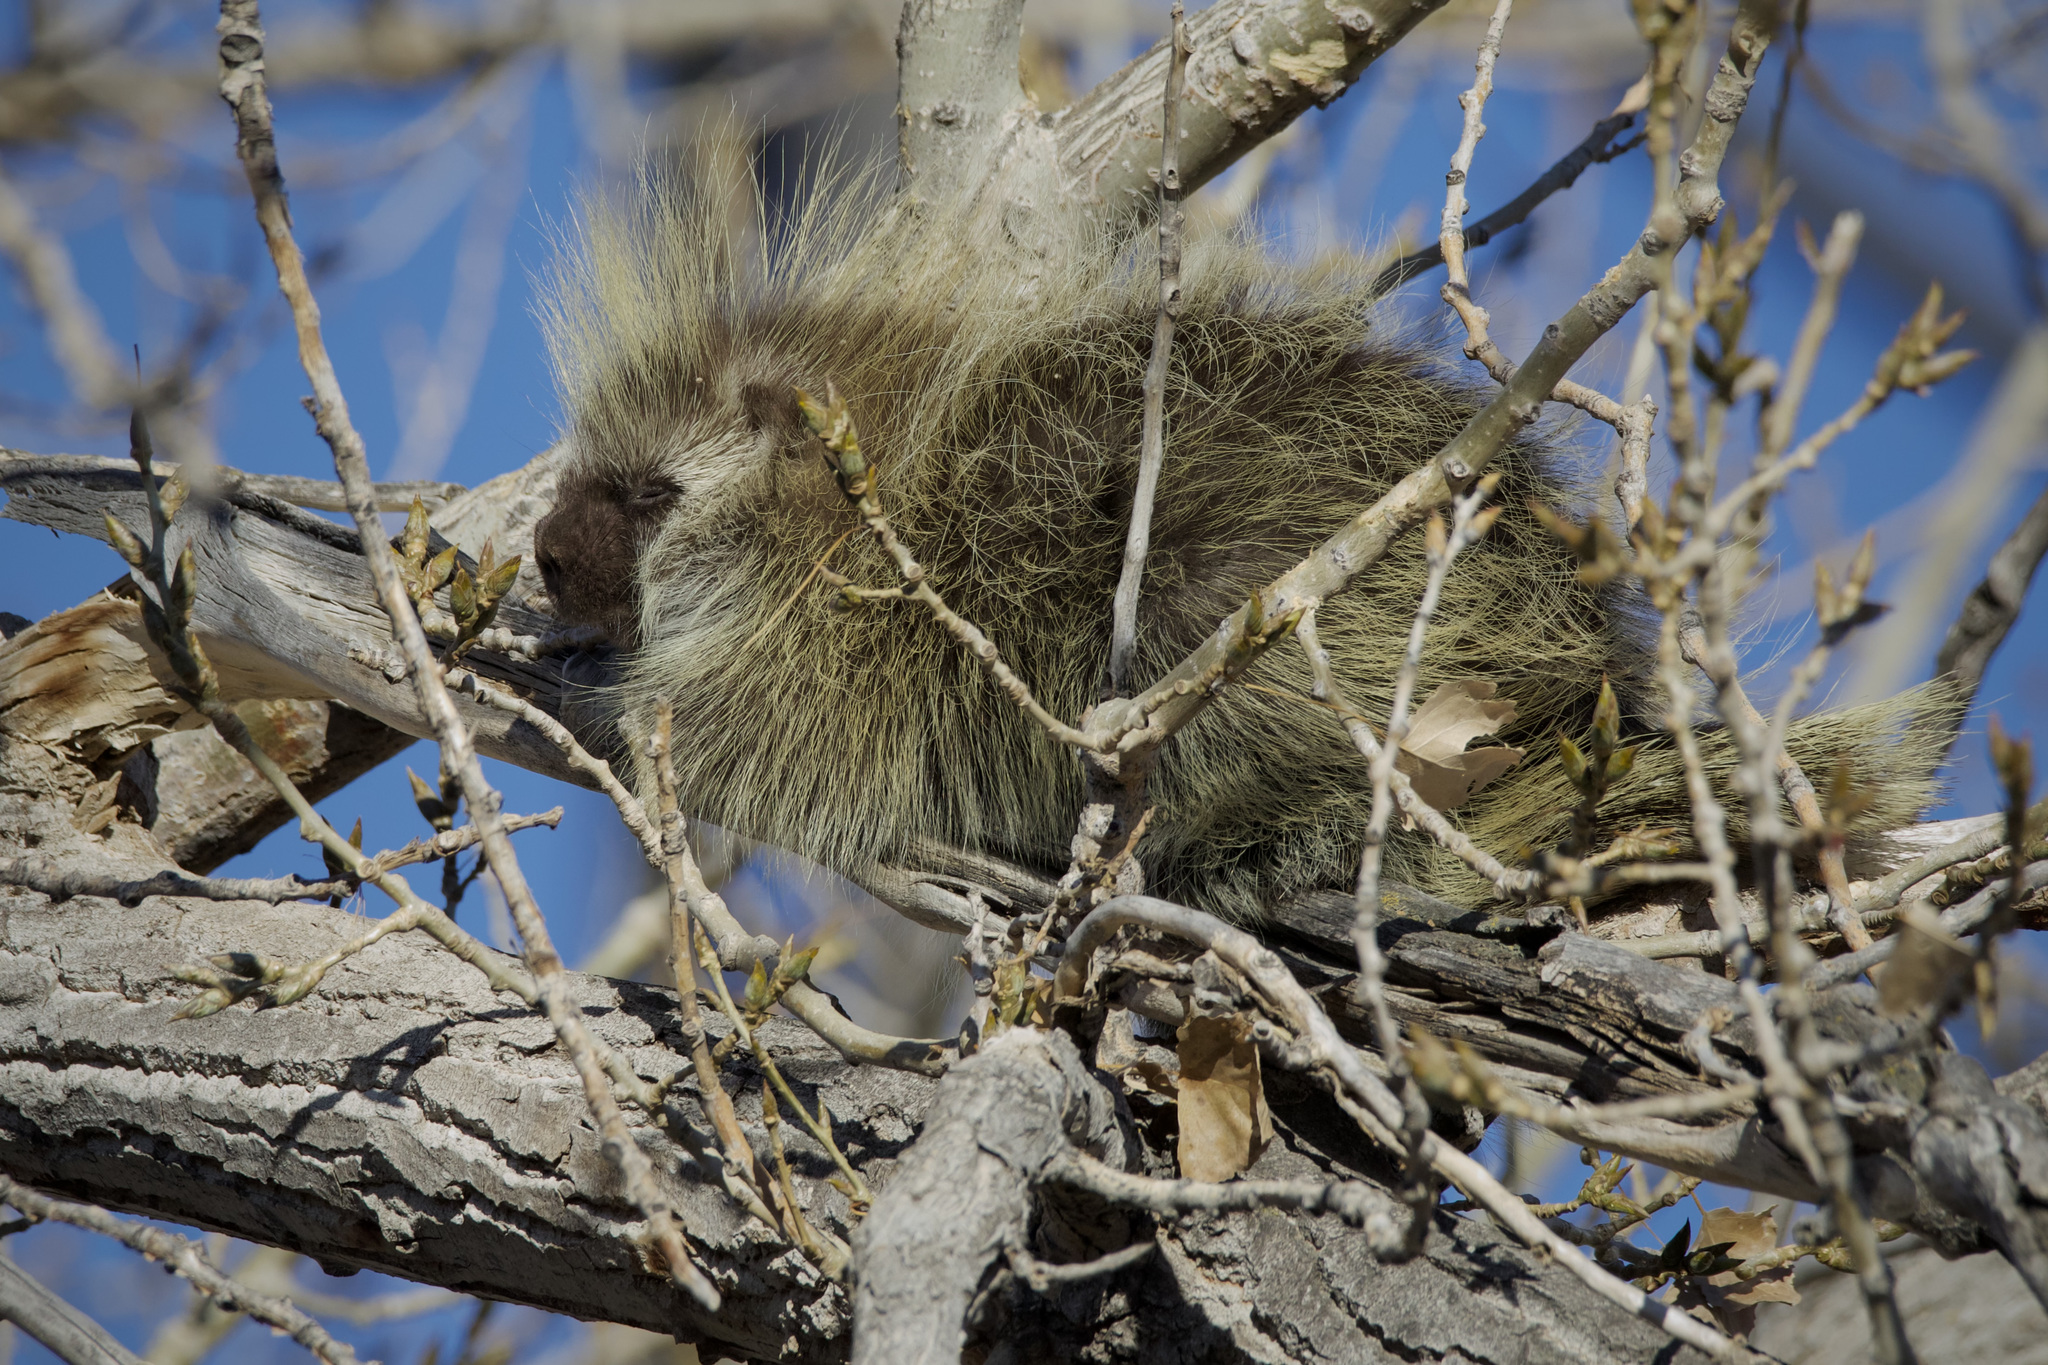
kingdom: Animalia
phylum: Chordata
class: Mammalia
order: Rodentia
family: Erethizontidae
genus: Erethizon
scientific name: Erethizon dorsatus
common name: North american porcupine
